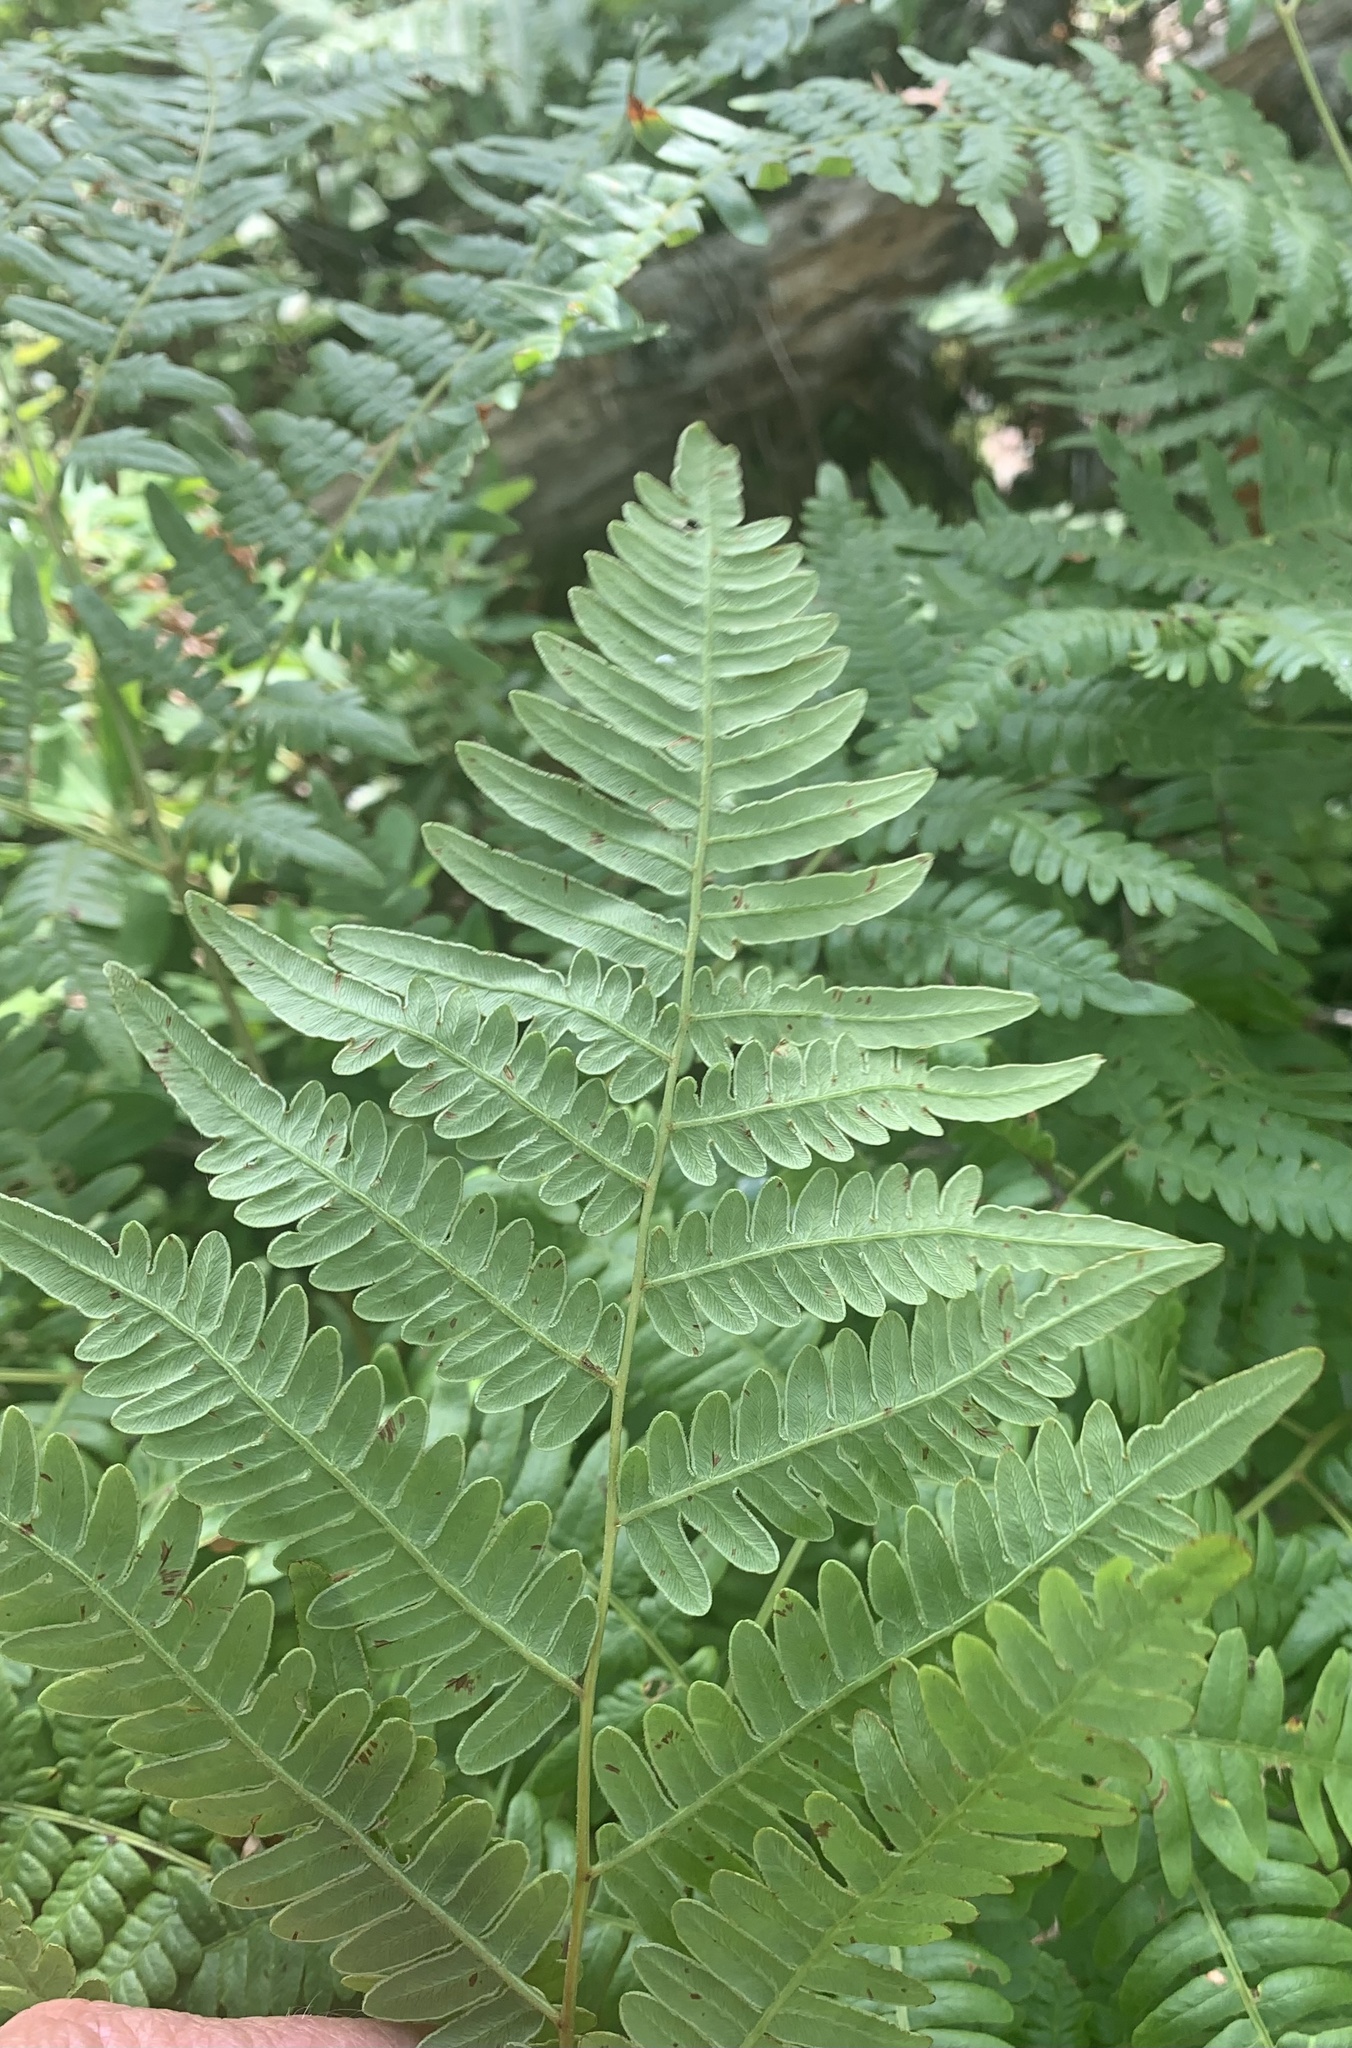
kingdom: Plantae
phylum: Tracheophyta
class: Polypodiopsida
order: Polypodiales
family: Dennstaedtiaceae
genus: Pteridium
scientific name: Pteridium aquilinum
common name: Bracken
